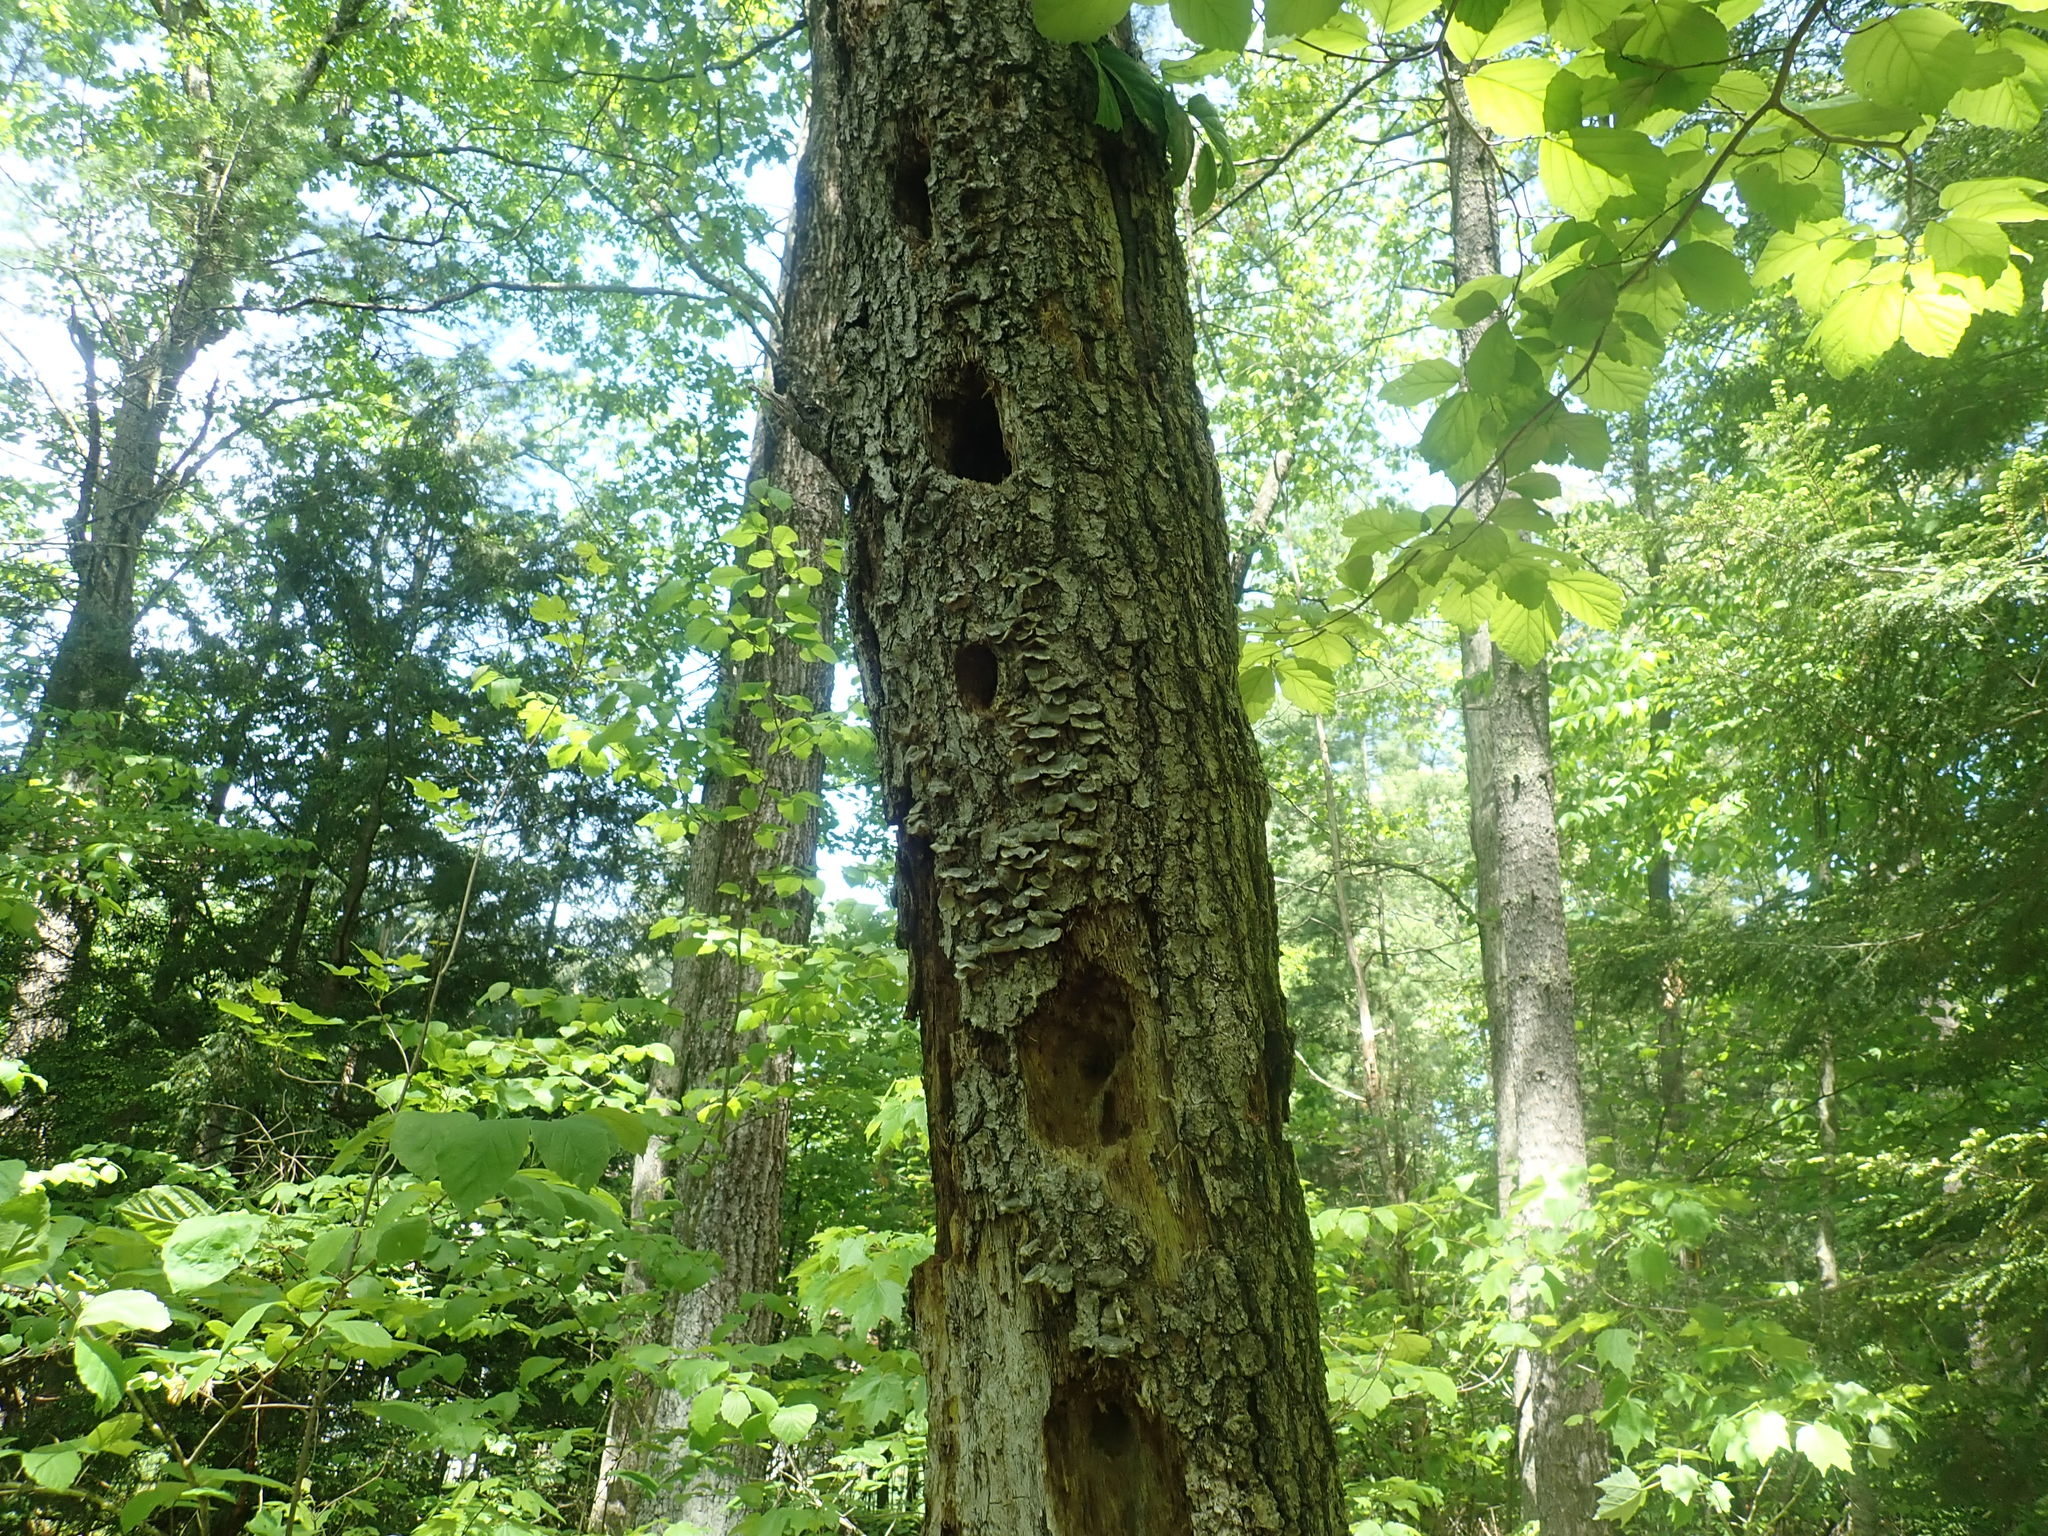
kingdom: Animalia
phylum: Chordata
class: Aves
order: Piciformes
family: Picidae
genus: Dryocopus
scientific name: Dryocopus pileatus
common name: Pileated woodpecker
